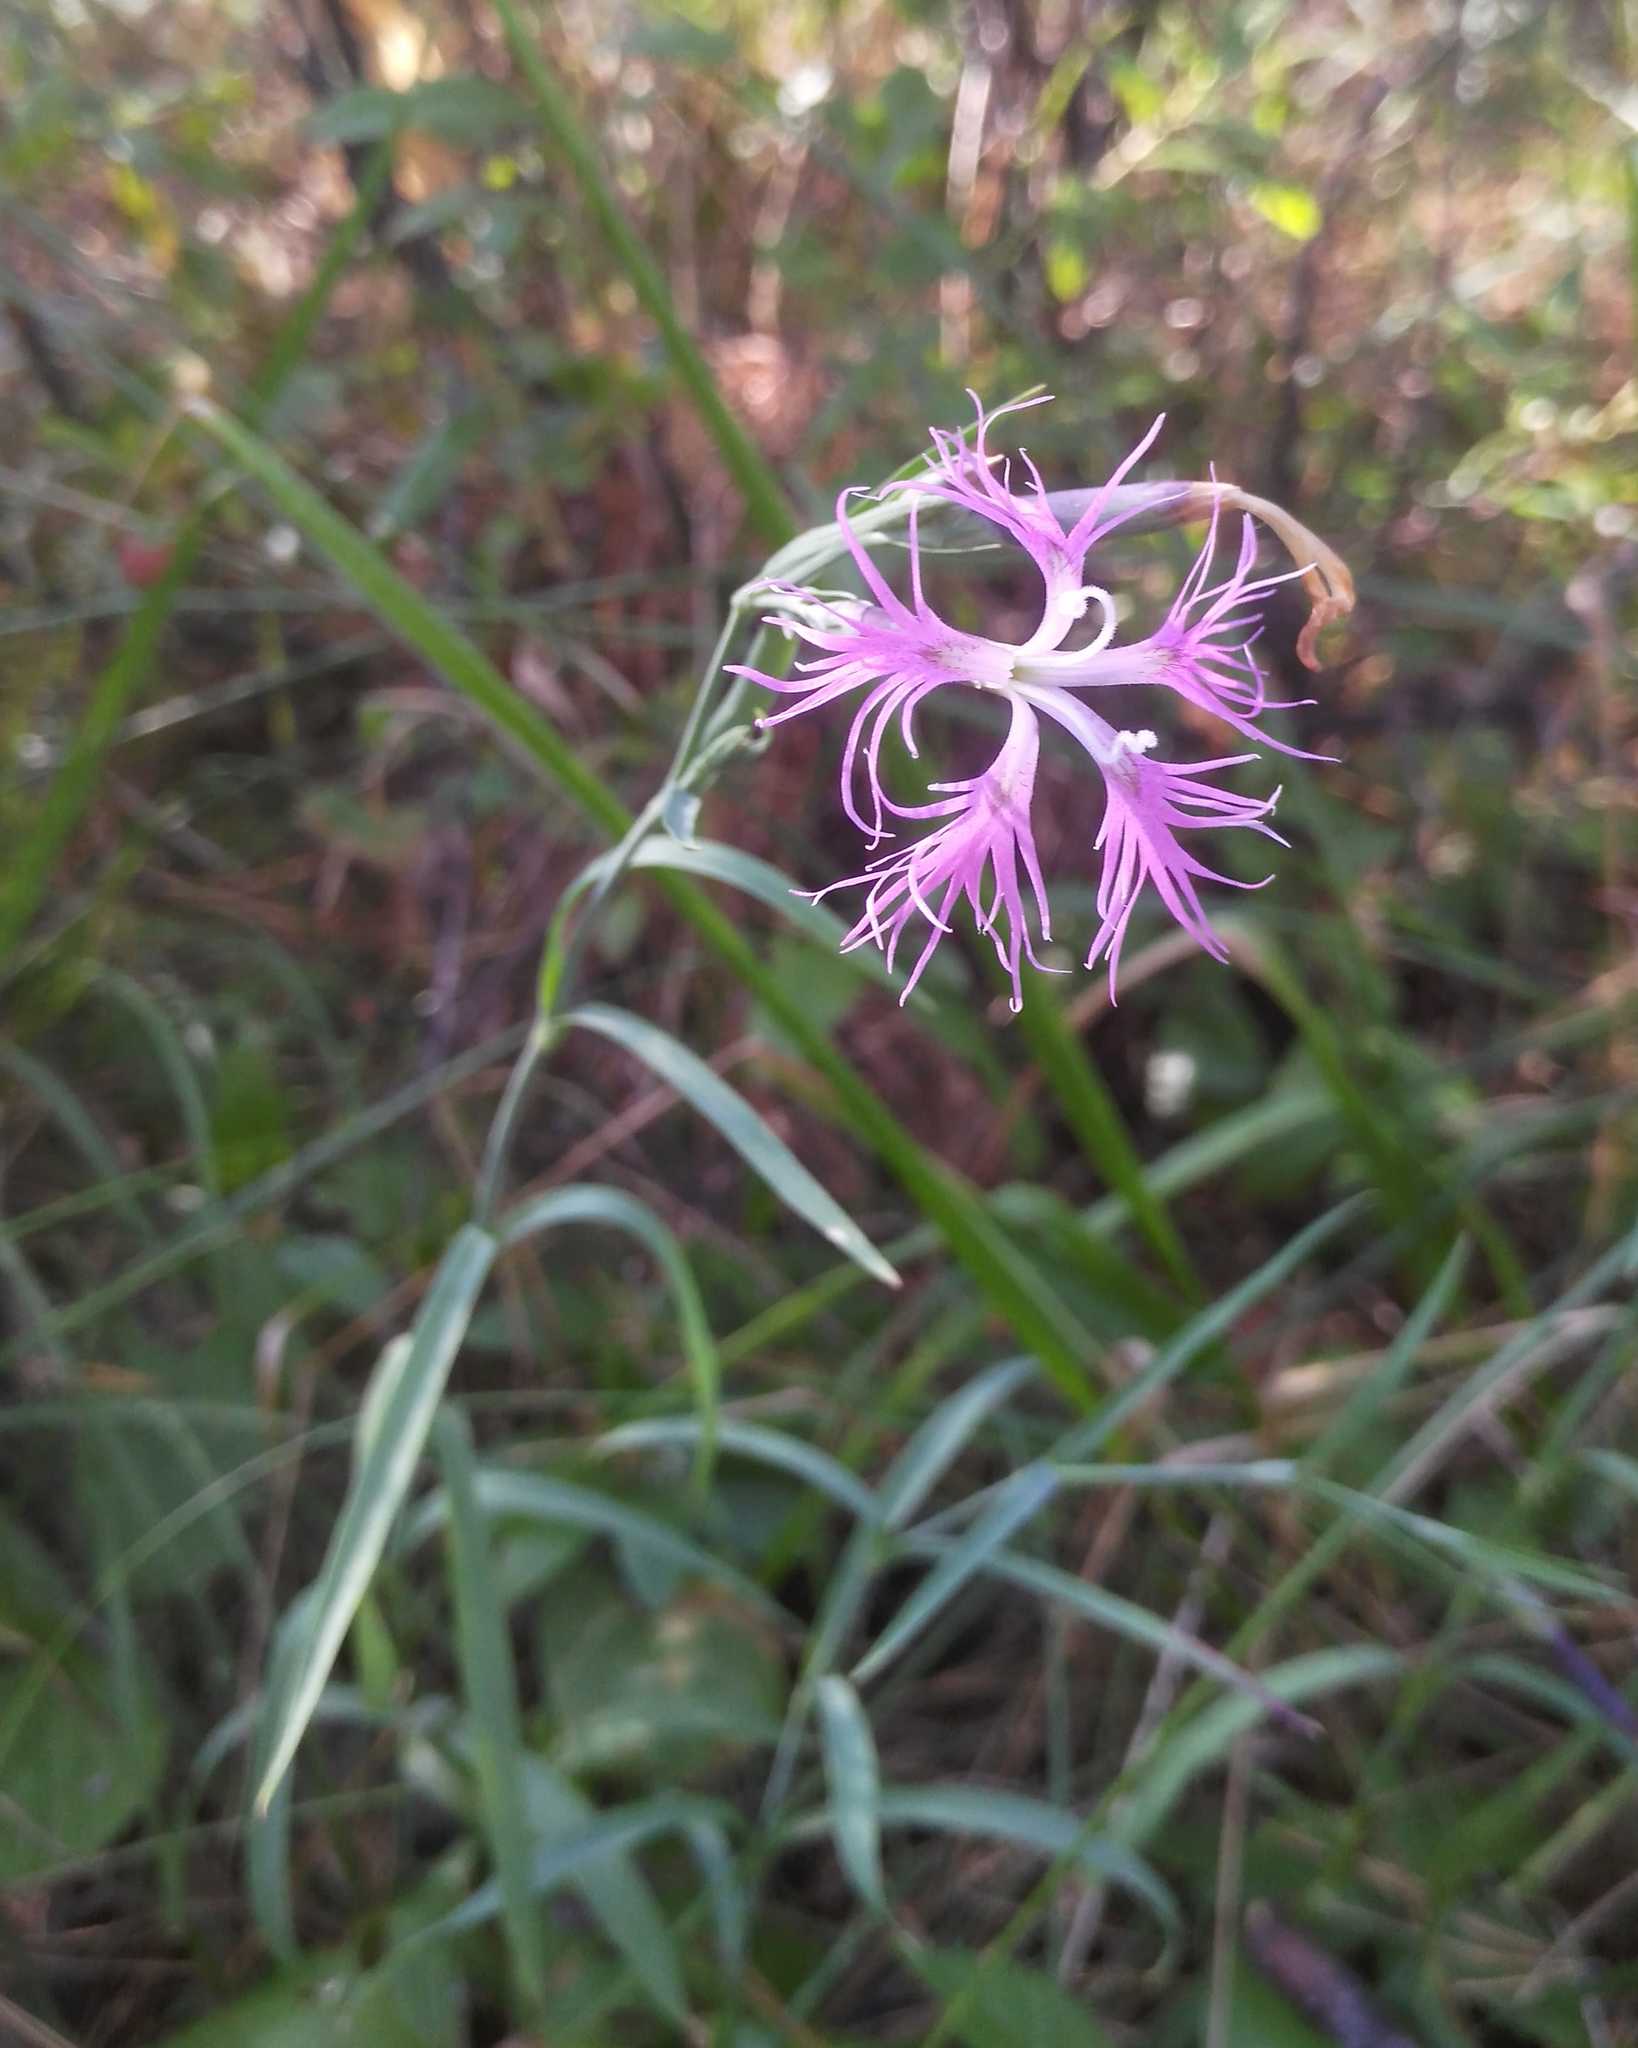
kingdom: Plantae
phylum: Tracheophyta
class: Magnoliopsida
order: Caryophyllales
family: Caryophyllaceae
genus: Dianthus
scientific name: Dianthus superbus
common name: Fringed pink
